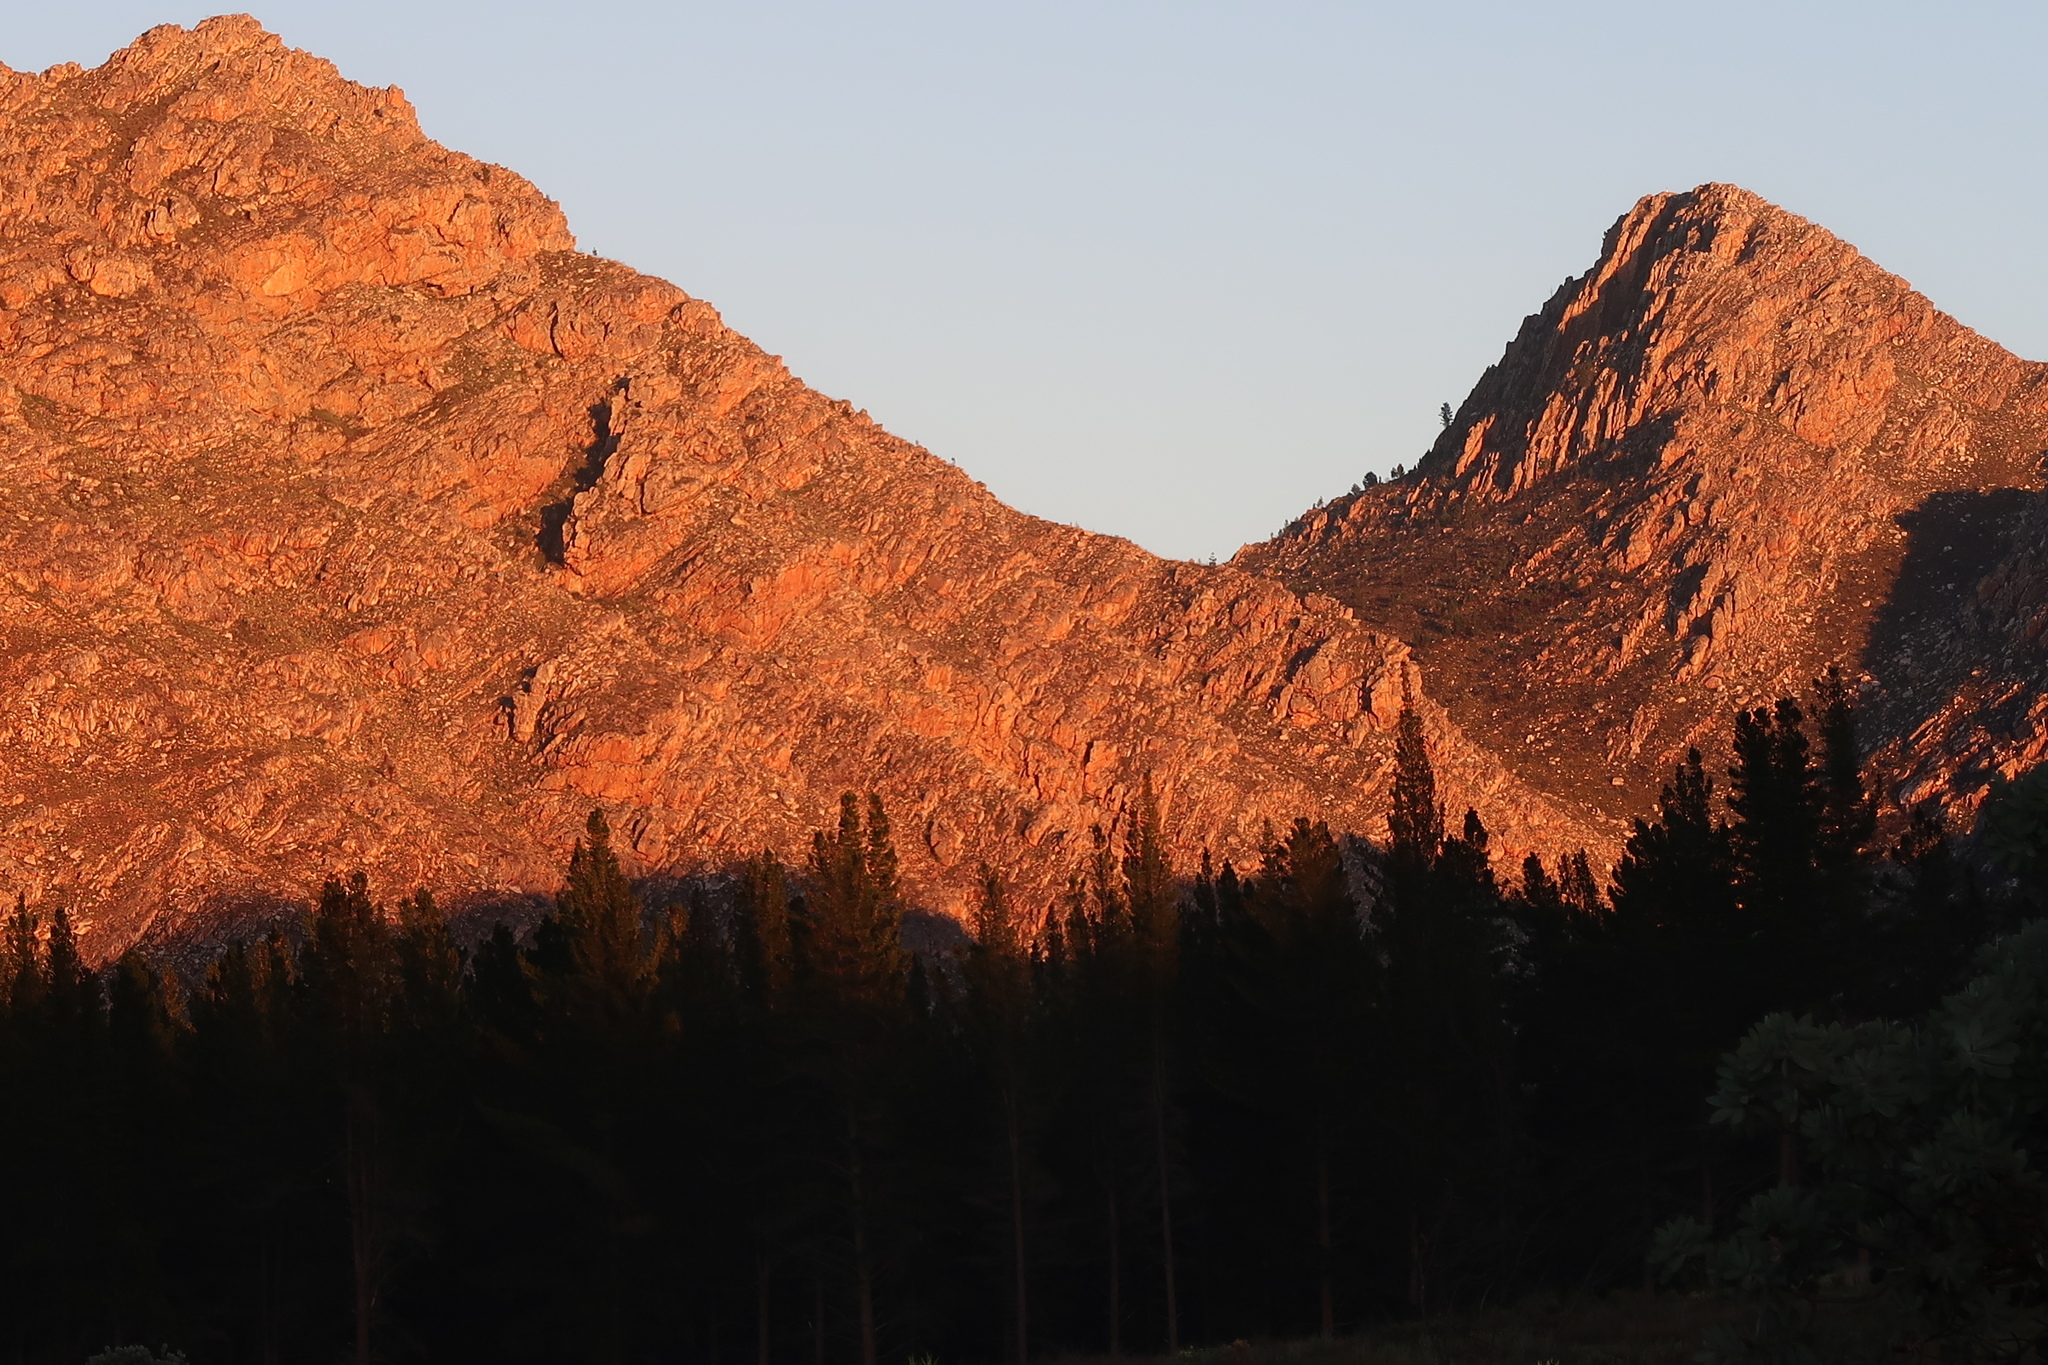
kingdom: Plantae
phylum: Tracheophyta
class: Pinopsida
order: Pinales
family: Pinaceae
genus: Pinus
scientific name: Pinus radiata
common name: Monterey pine
